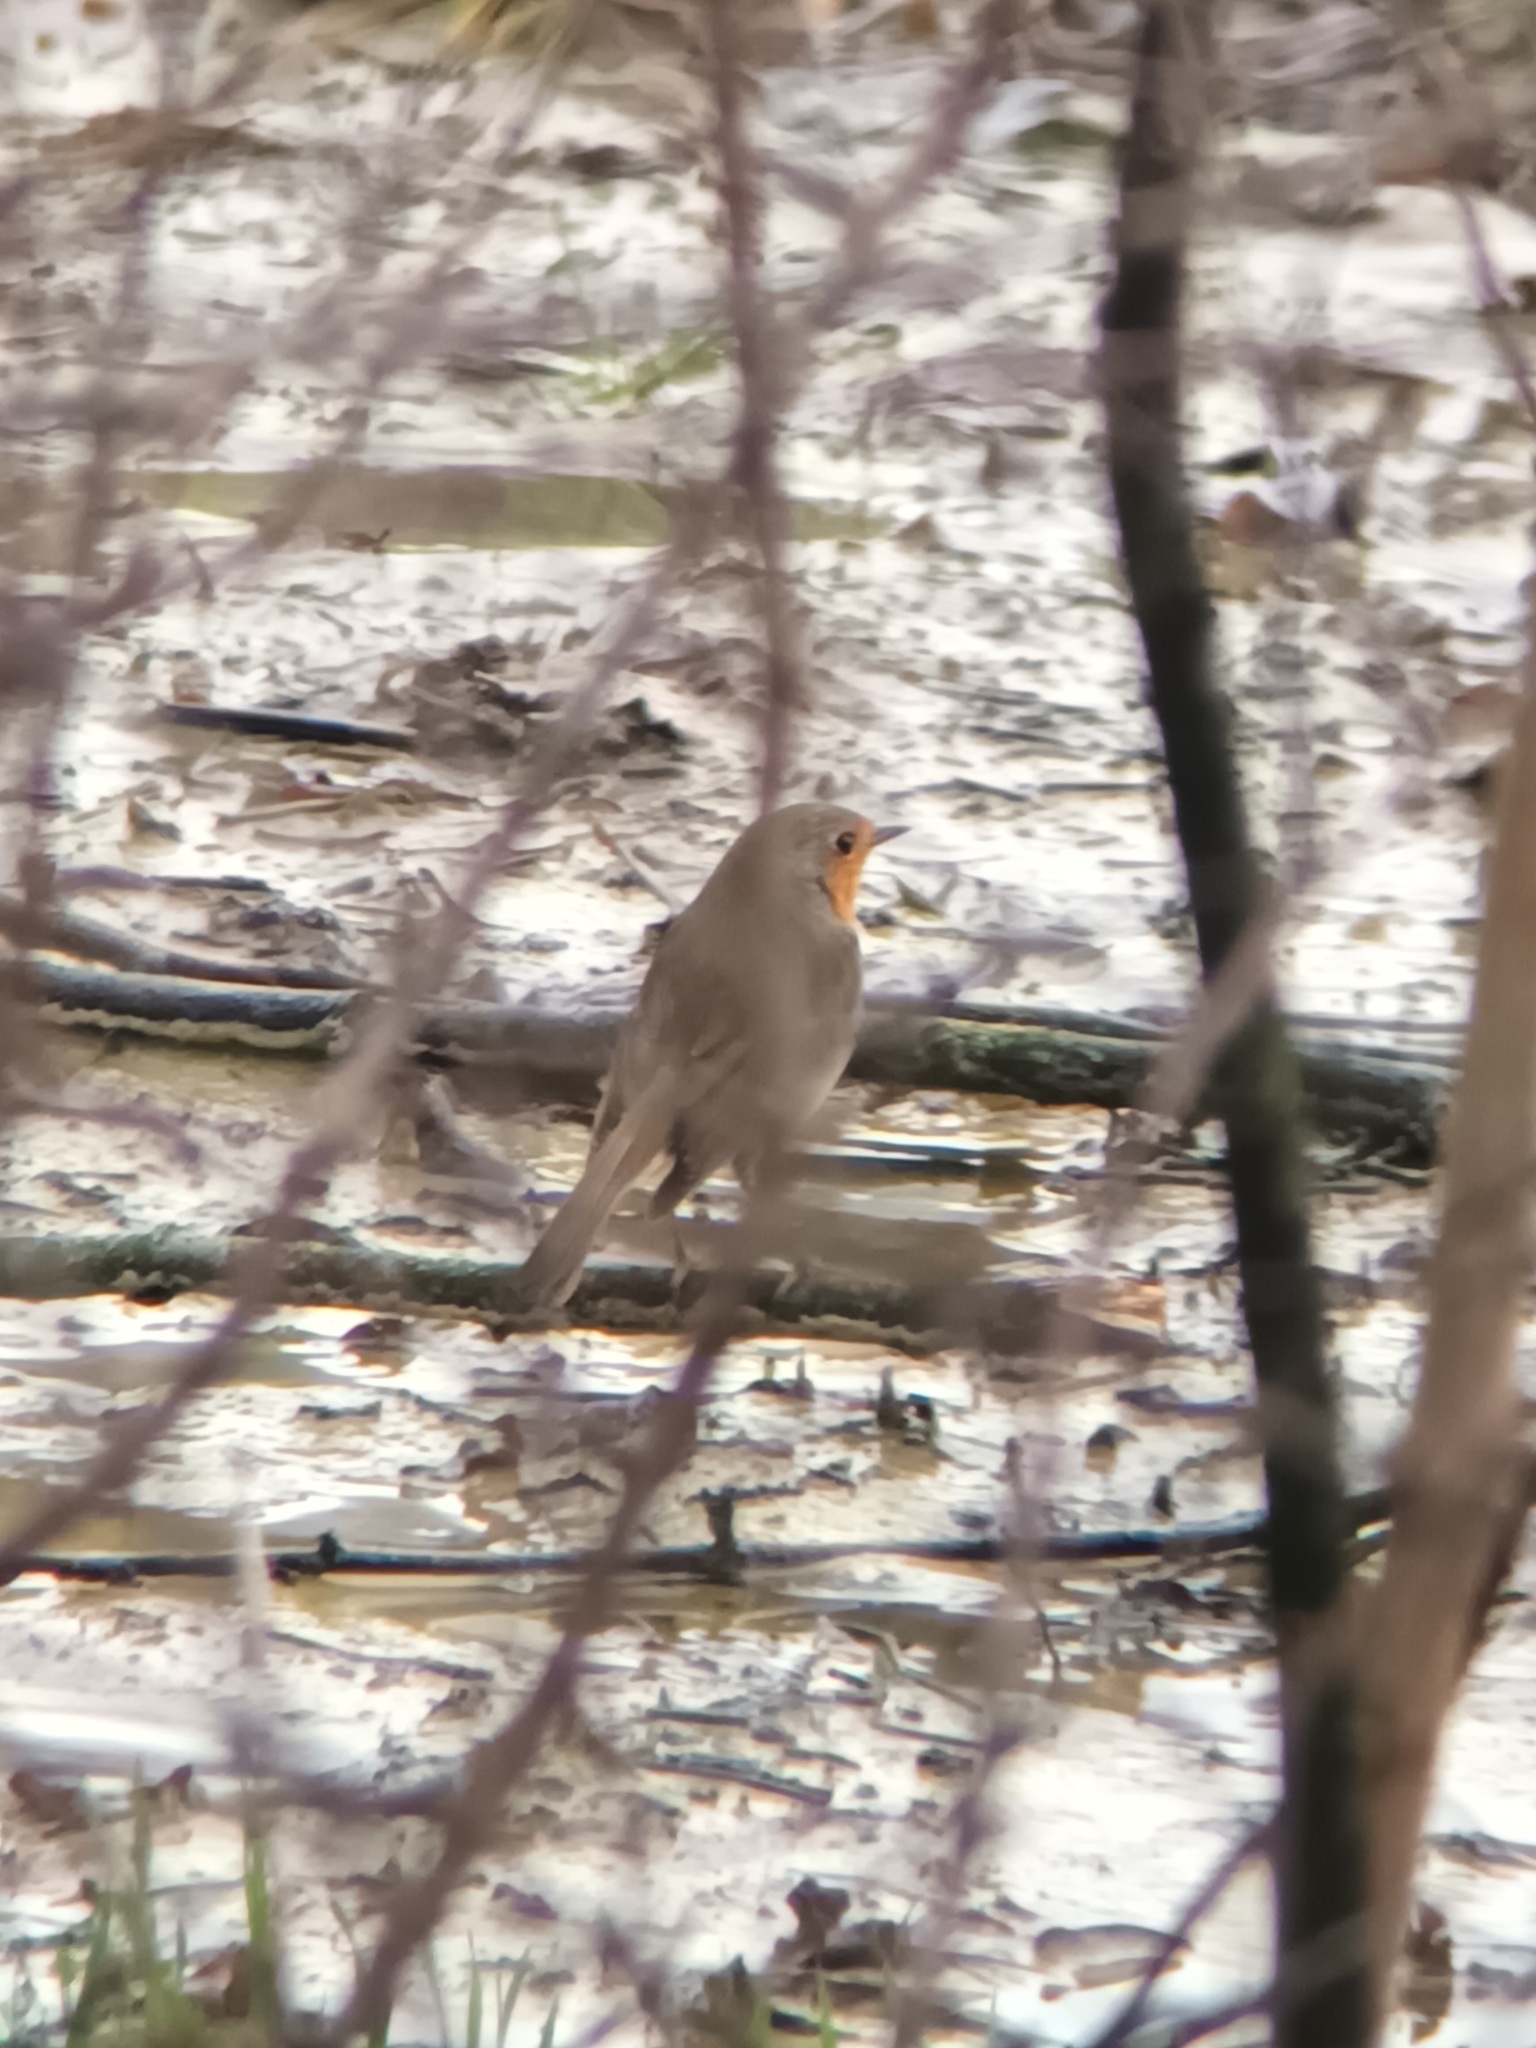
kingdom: Animalia
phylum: Chordata
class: Aves
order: Passeriformes
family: Muscicapidae
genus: Erithacus
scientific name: Erithacus rubecula
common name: European robin
